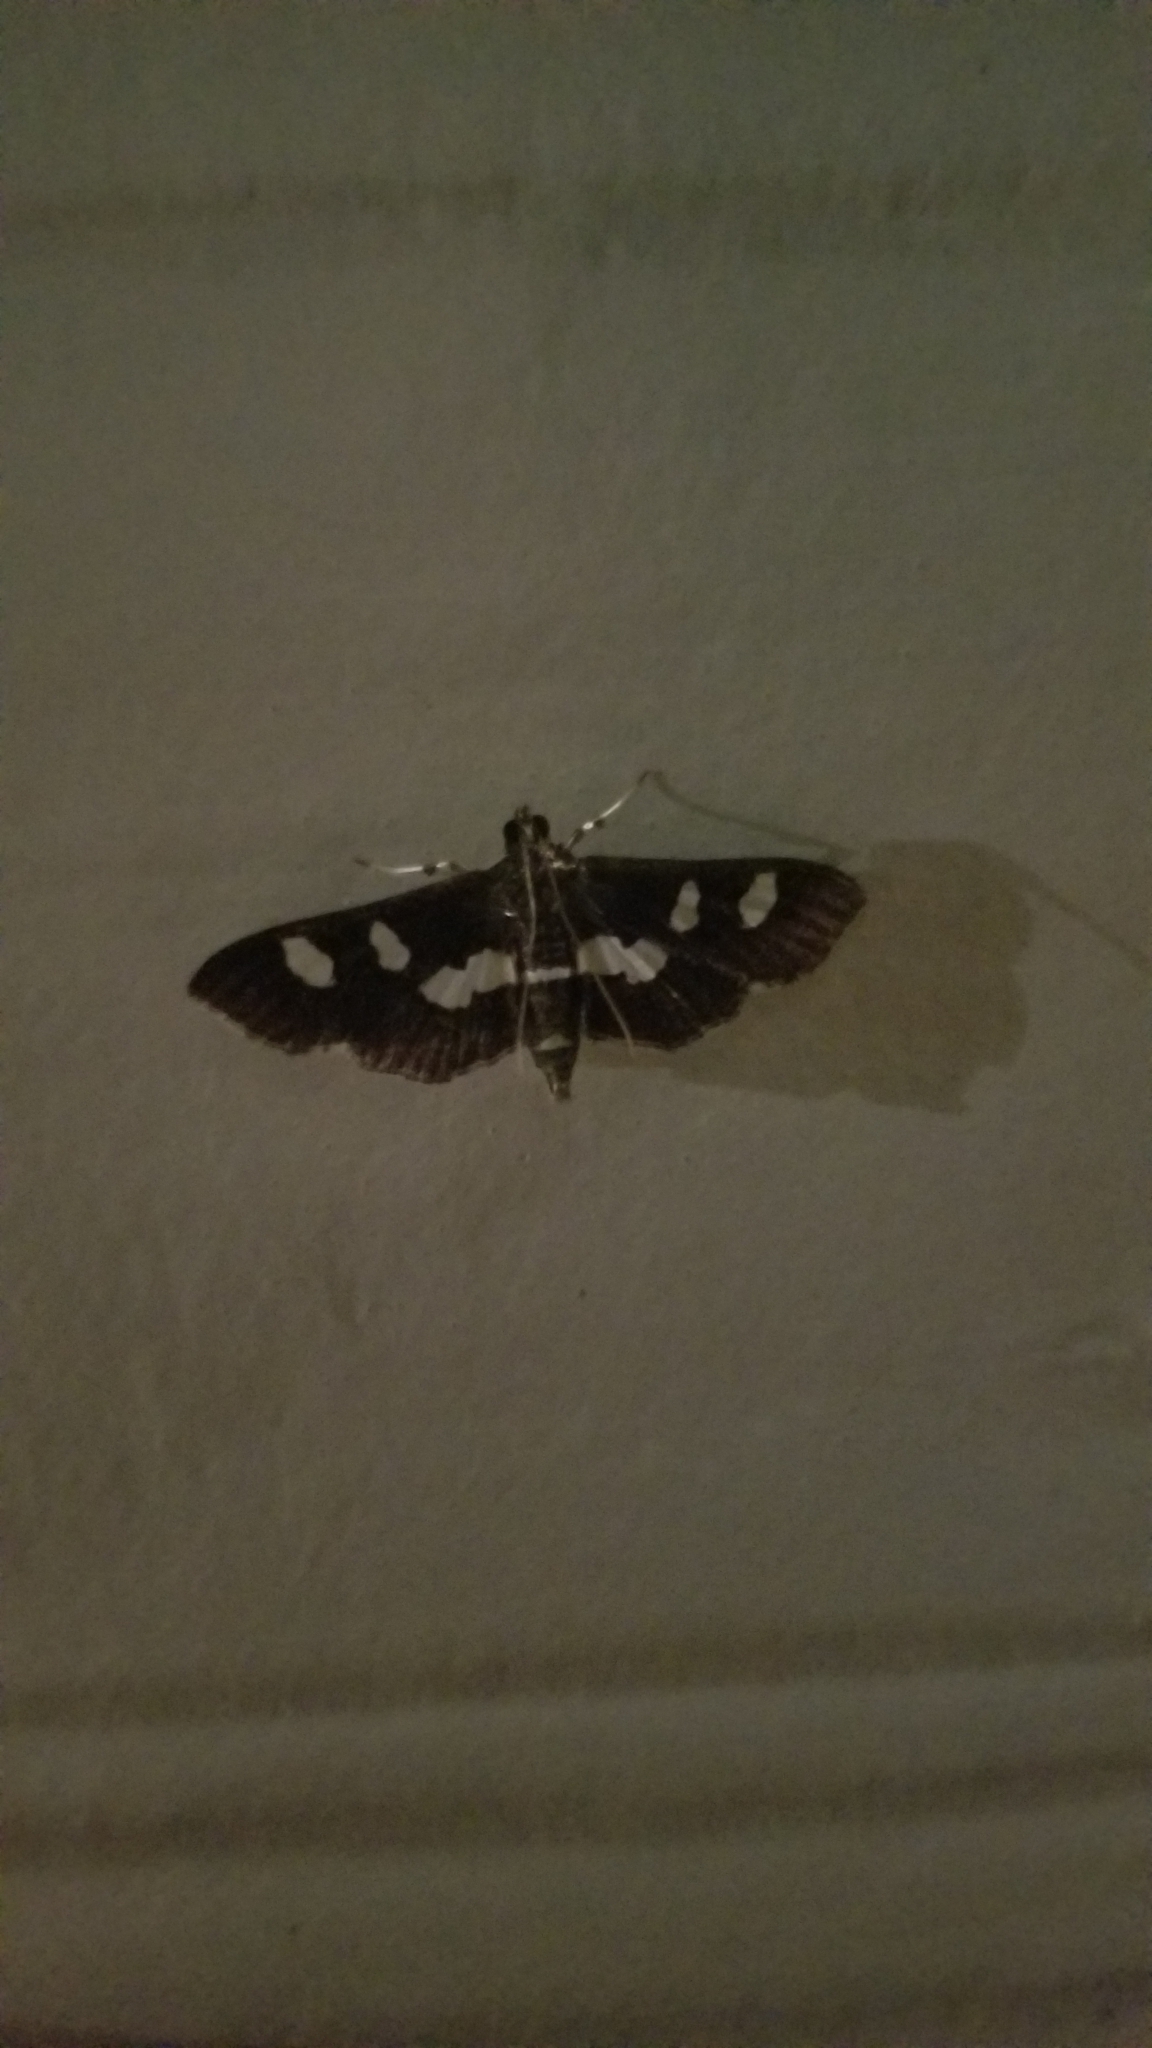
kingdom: Animalia
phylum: Arthropoda
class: Insecta
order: Lepidoptera
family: Crambidae
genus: Desmia
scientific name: Desmia
